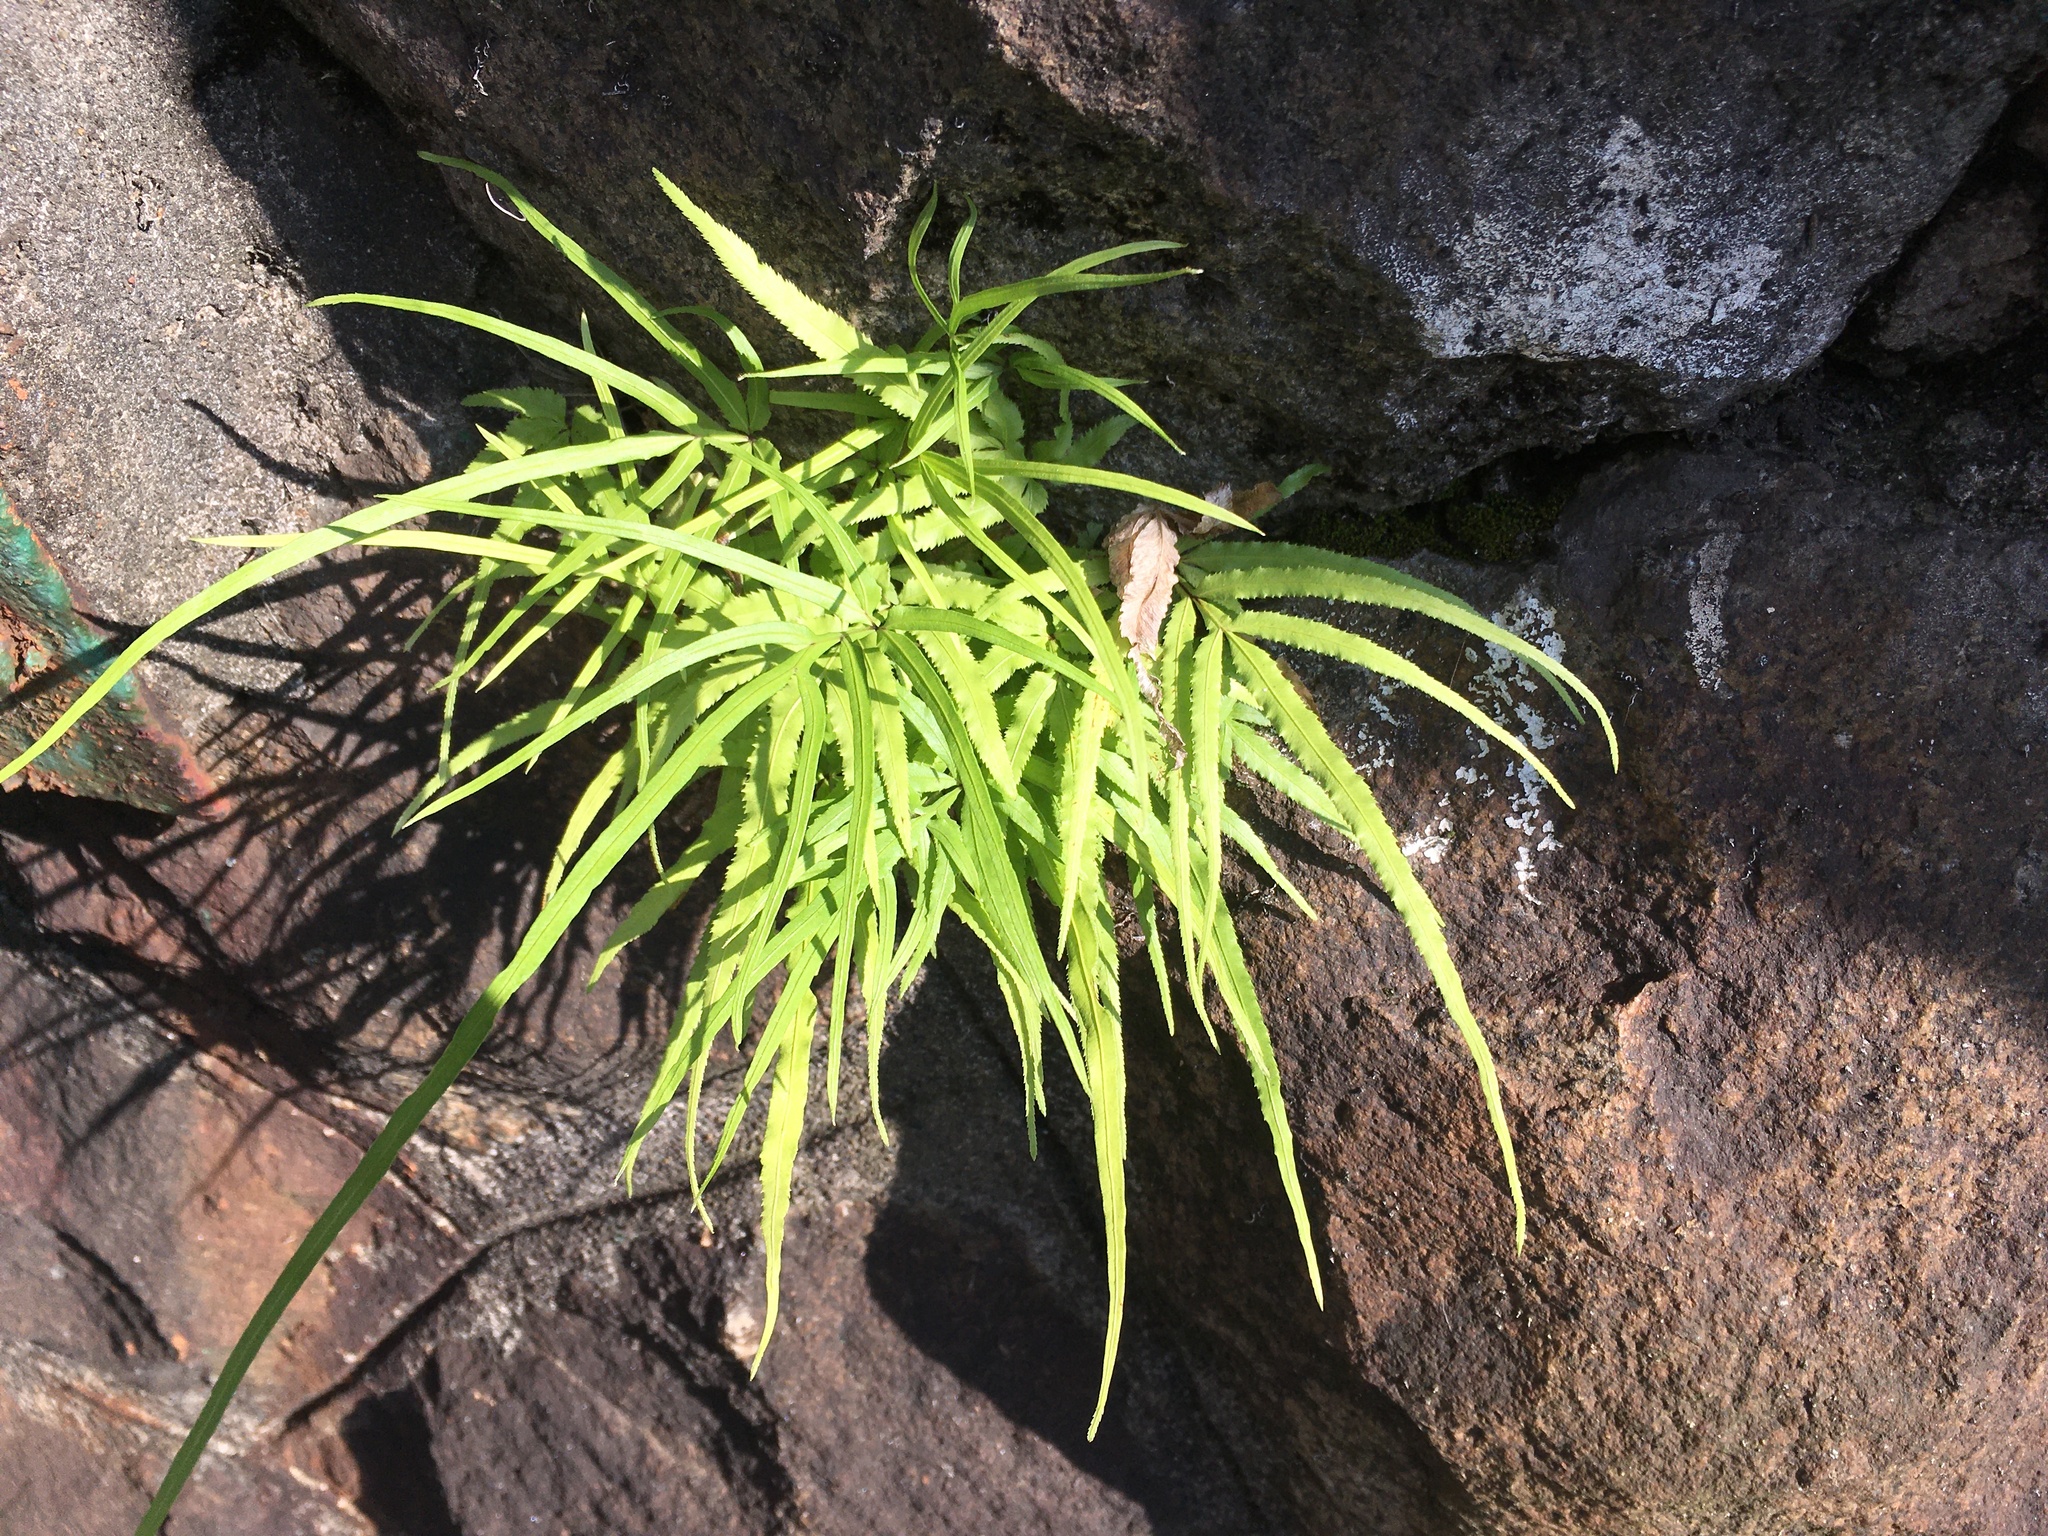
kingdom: Plantae
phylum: Tracheophyta
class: Polypodiopsida
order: Polypodiales
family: Pteridaceae
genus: Pteris
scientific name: Pteris multifida
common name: Spider brake
